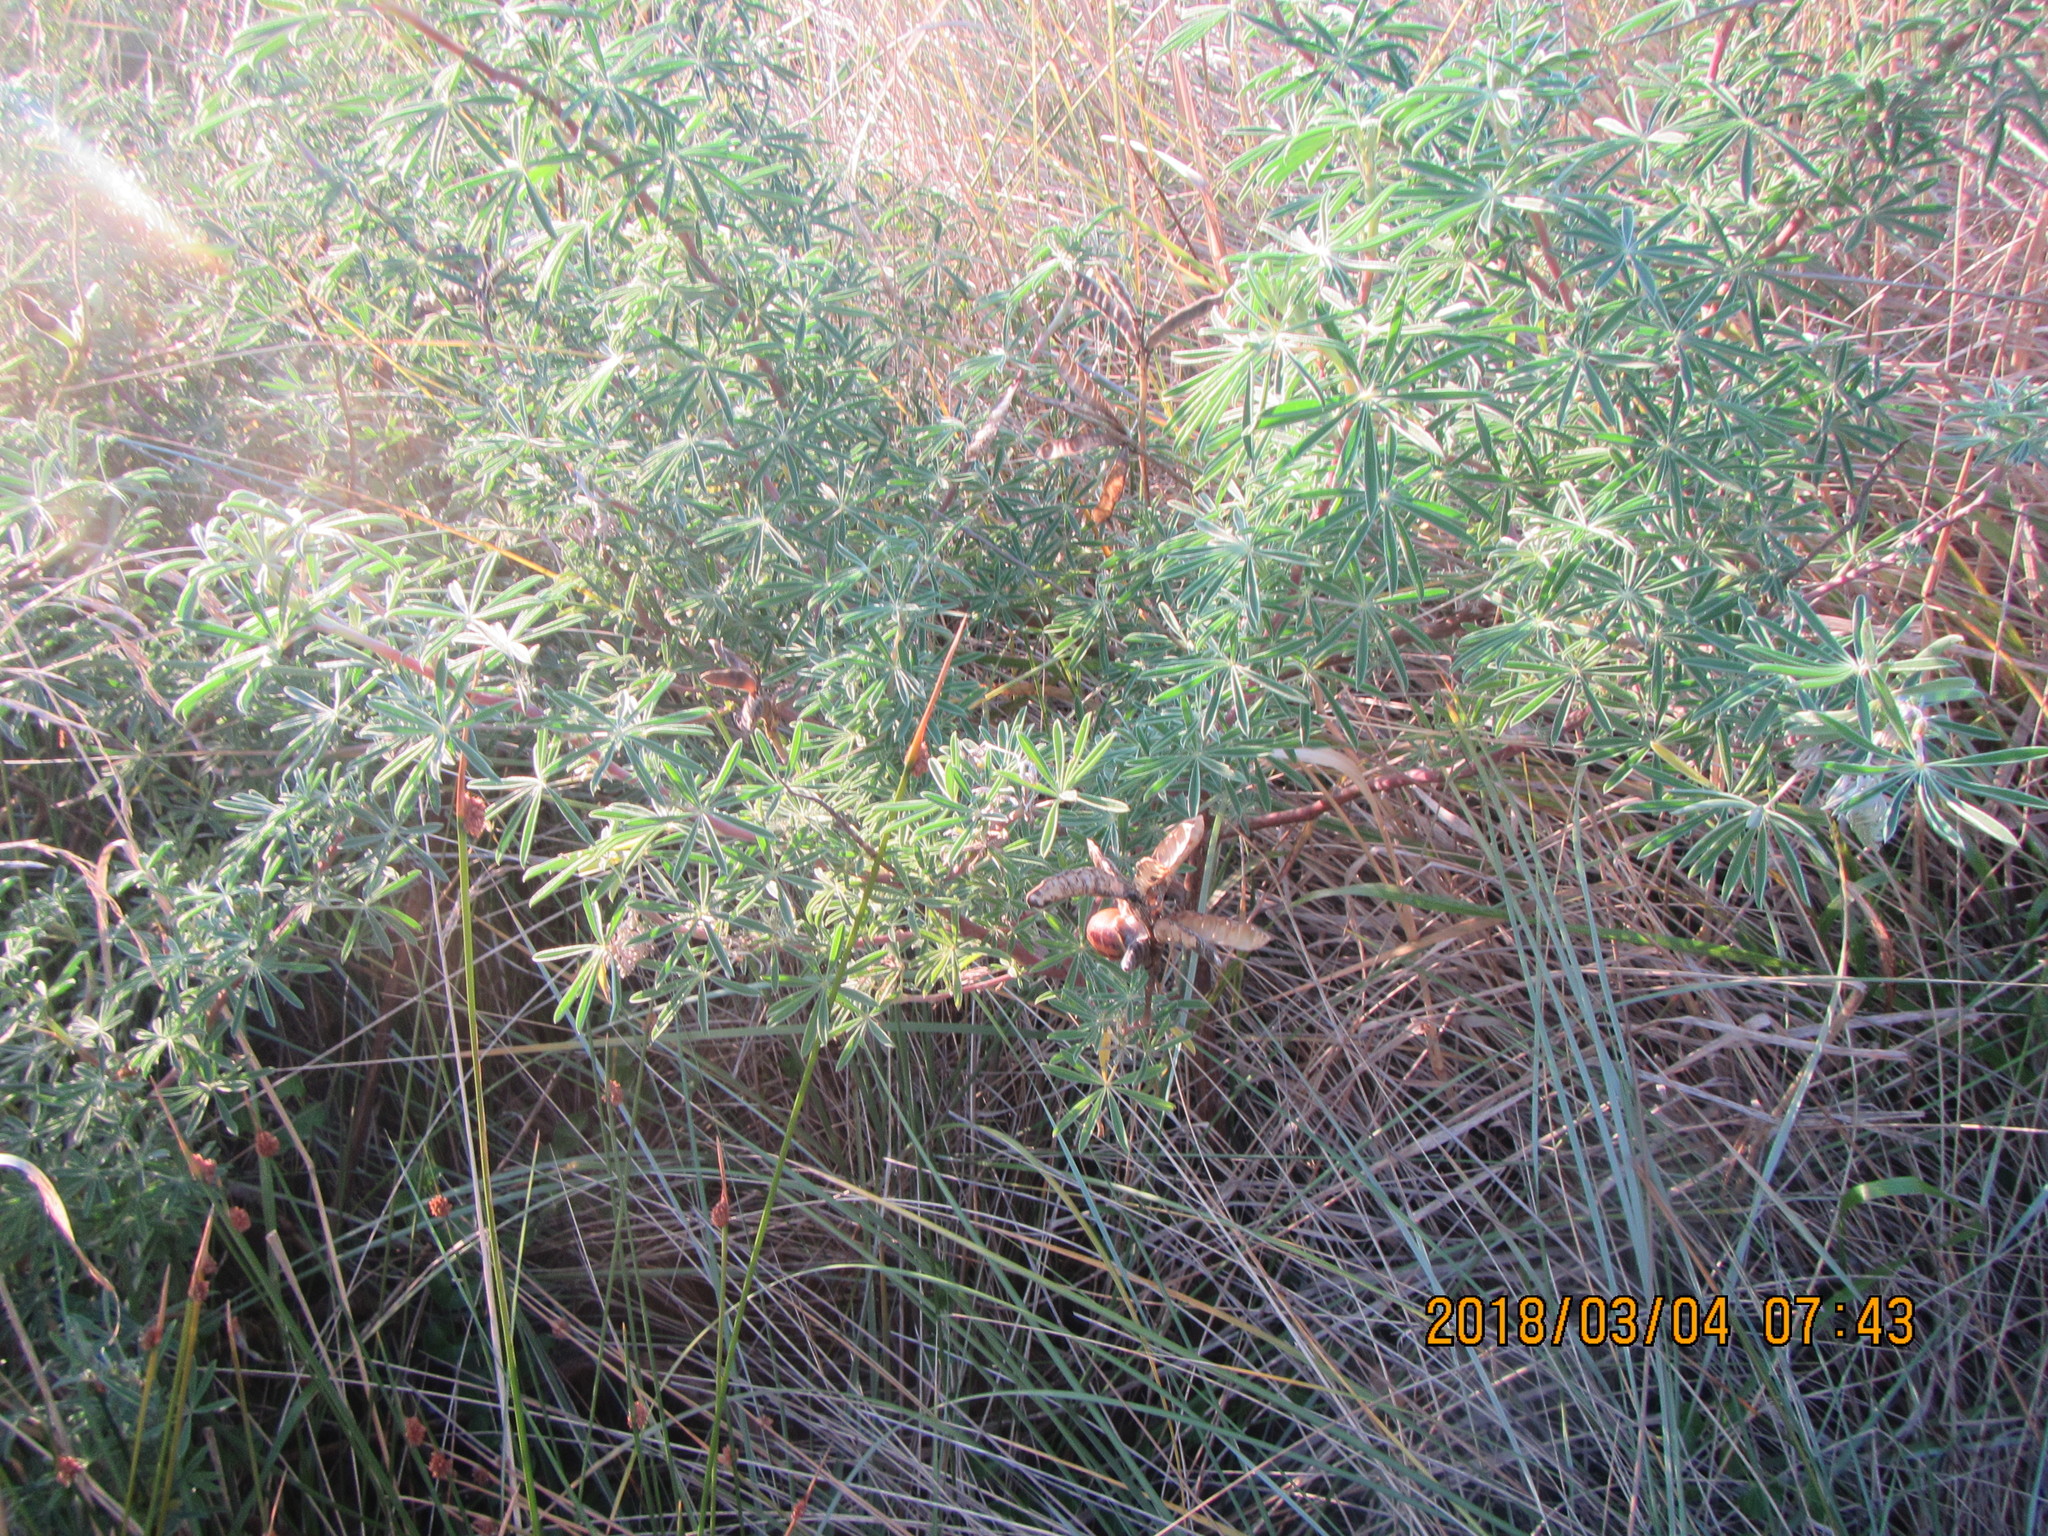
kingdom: Animalia
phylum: Mollusca
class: Gastropoda
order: Stylommatophora
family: Helicidae
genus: Cornu
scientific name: Cornu aspersum
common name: Brown garden snail
